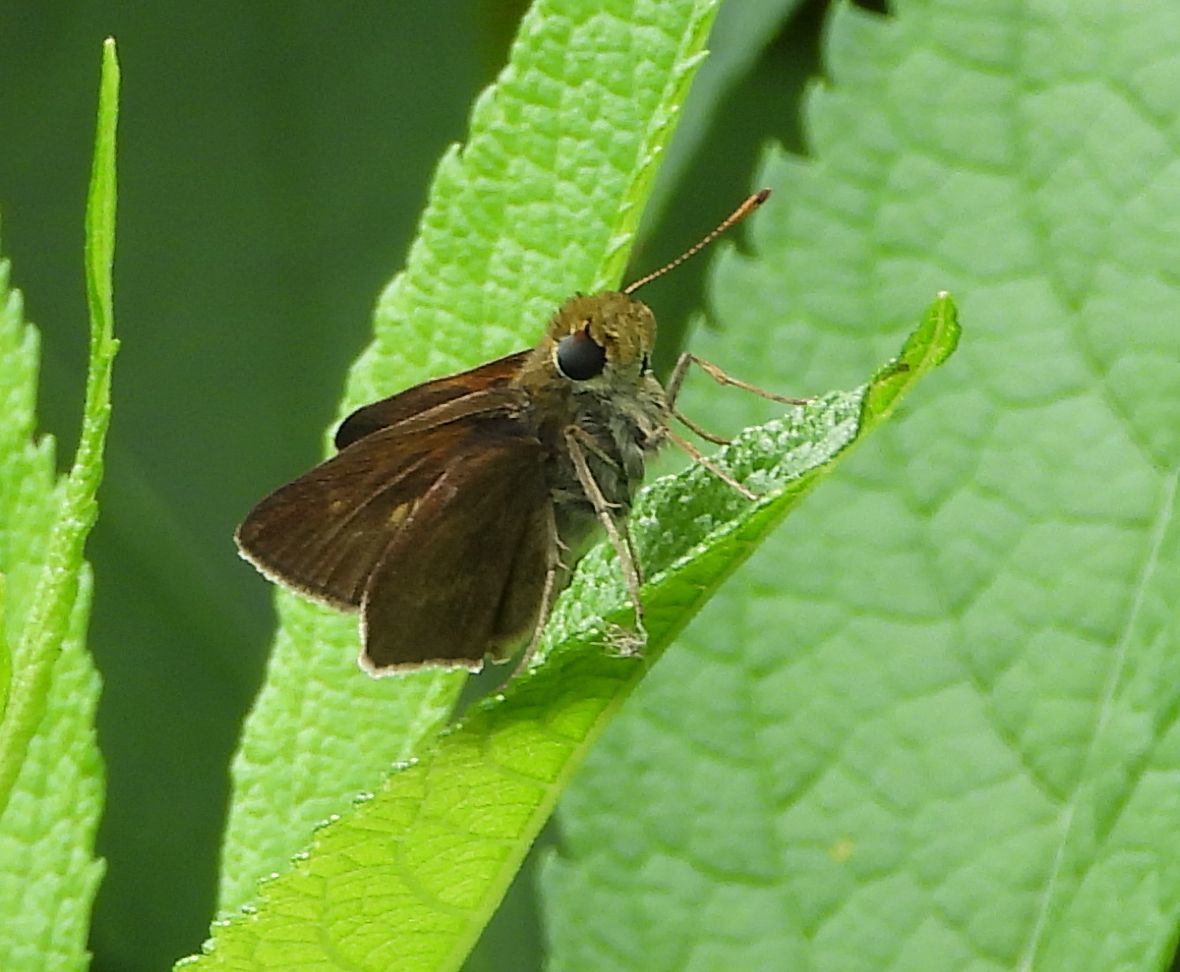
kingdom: Animalia
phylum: Arthropoda
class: Insecta
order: Lepidoptera
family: Hesperiidae
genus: Euphyes
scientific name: Euphyes vestris
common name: Dun skipper
